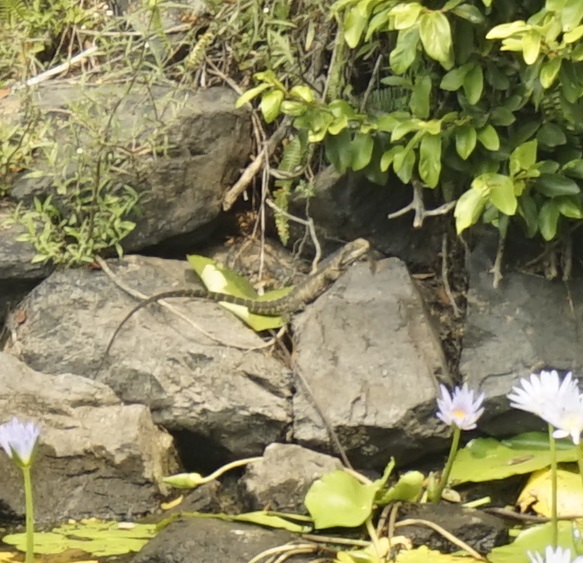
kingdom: Animalia
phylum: Chordata
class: Squamata
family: Agamidae
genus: Intellagama
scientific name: Intellagama lesueurii
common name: Eastern water dragon
